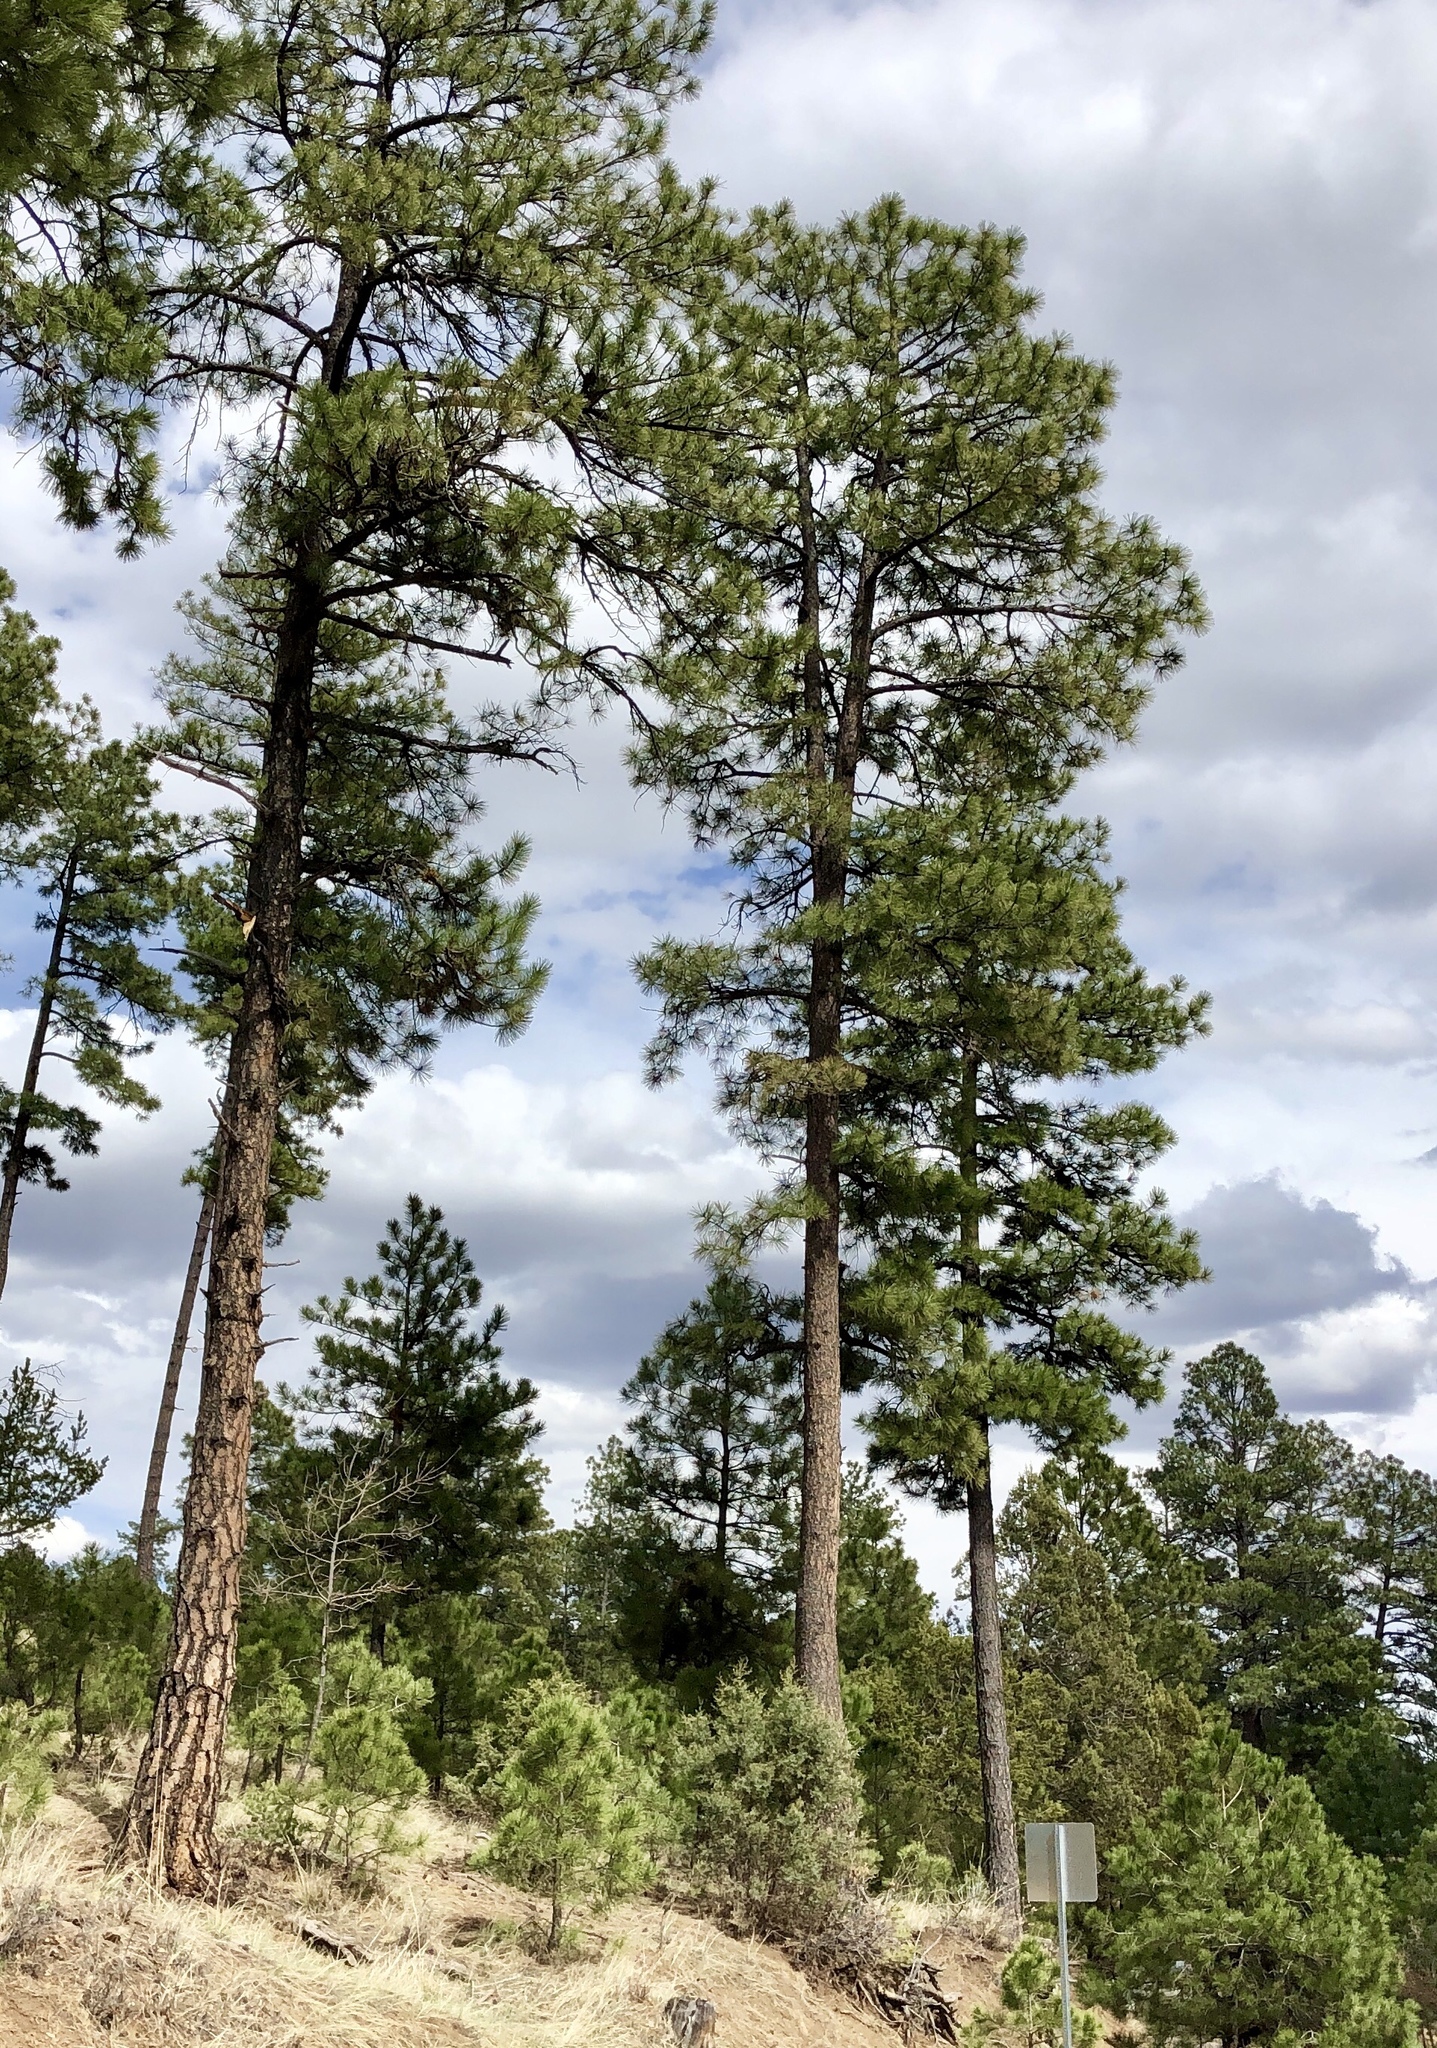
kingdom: Plantae
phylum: Tracheophyta
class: Pinopsida
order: Pinales
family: Pinaceae
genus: Pinus
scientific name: Pinus ponderosa
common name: Western yellow-pine
